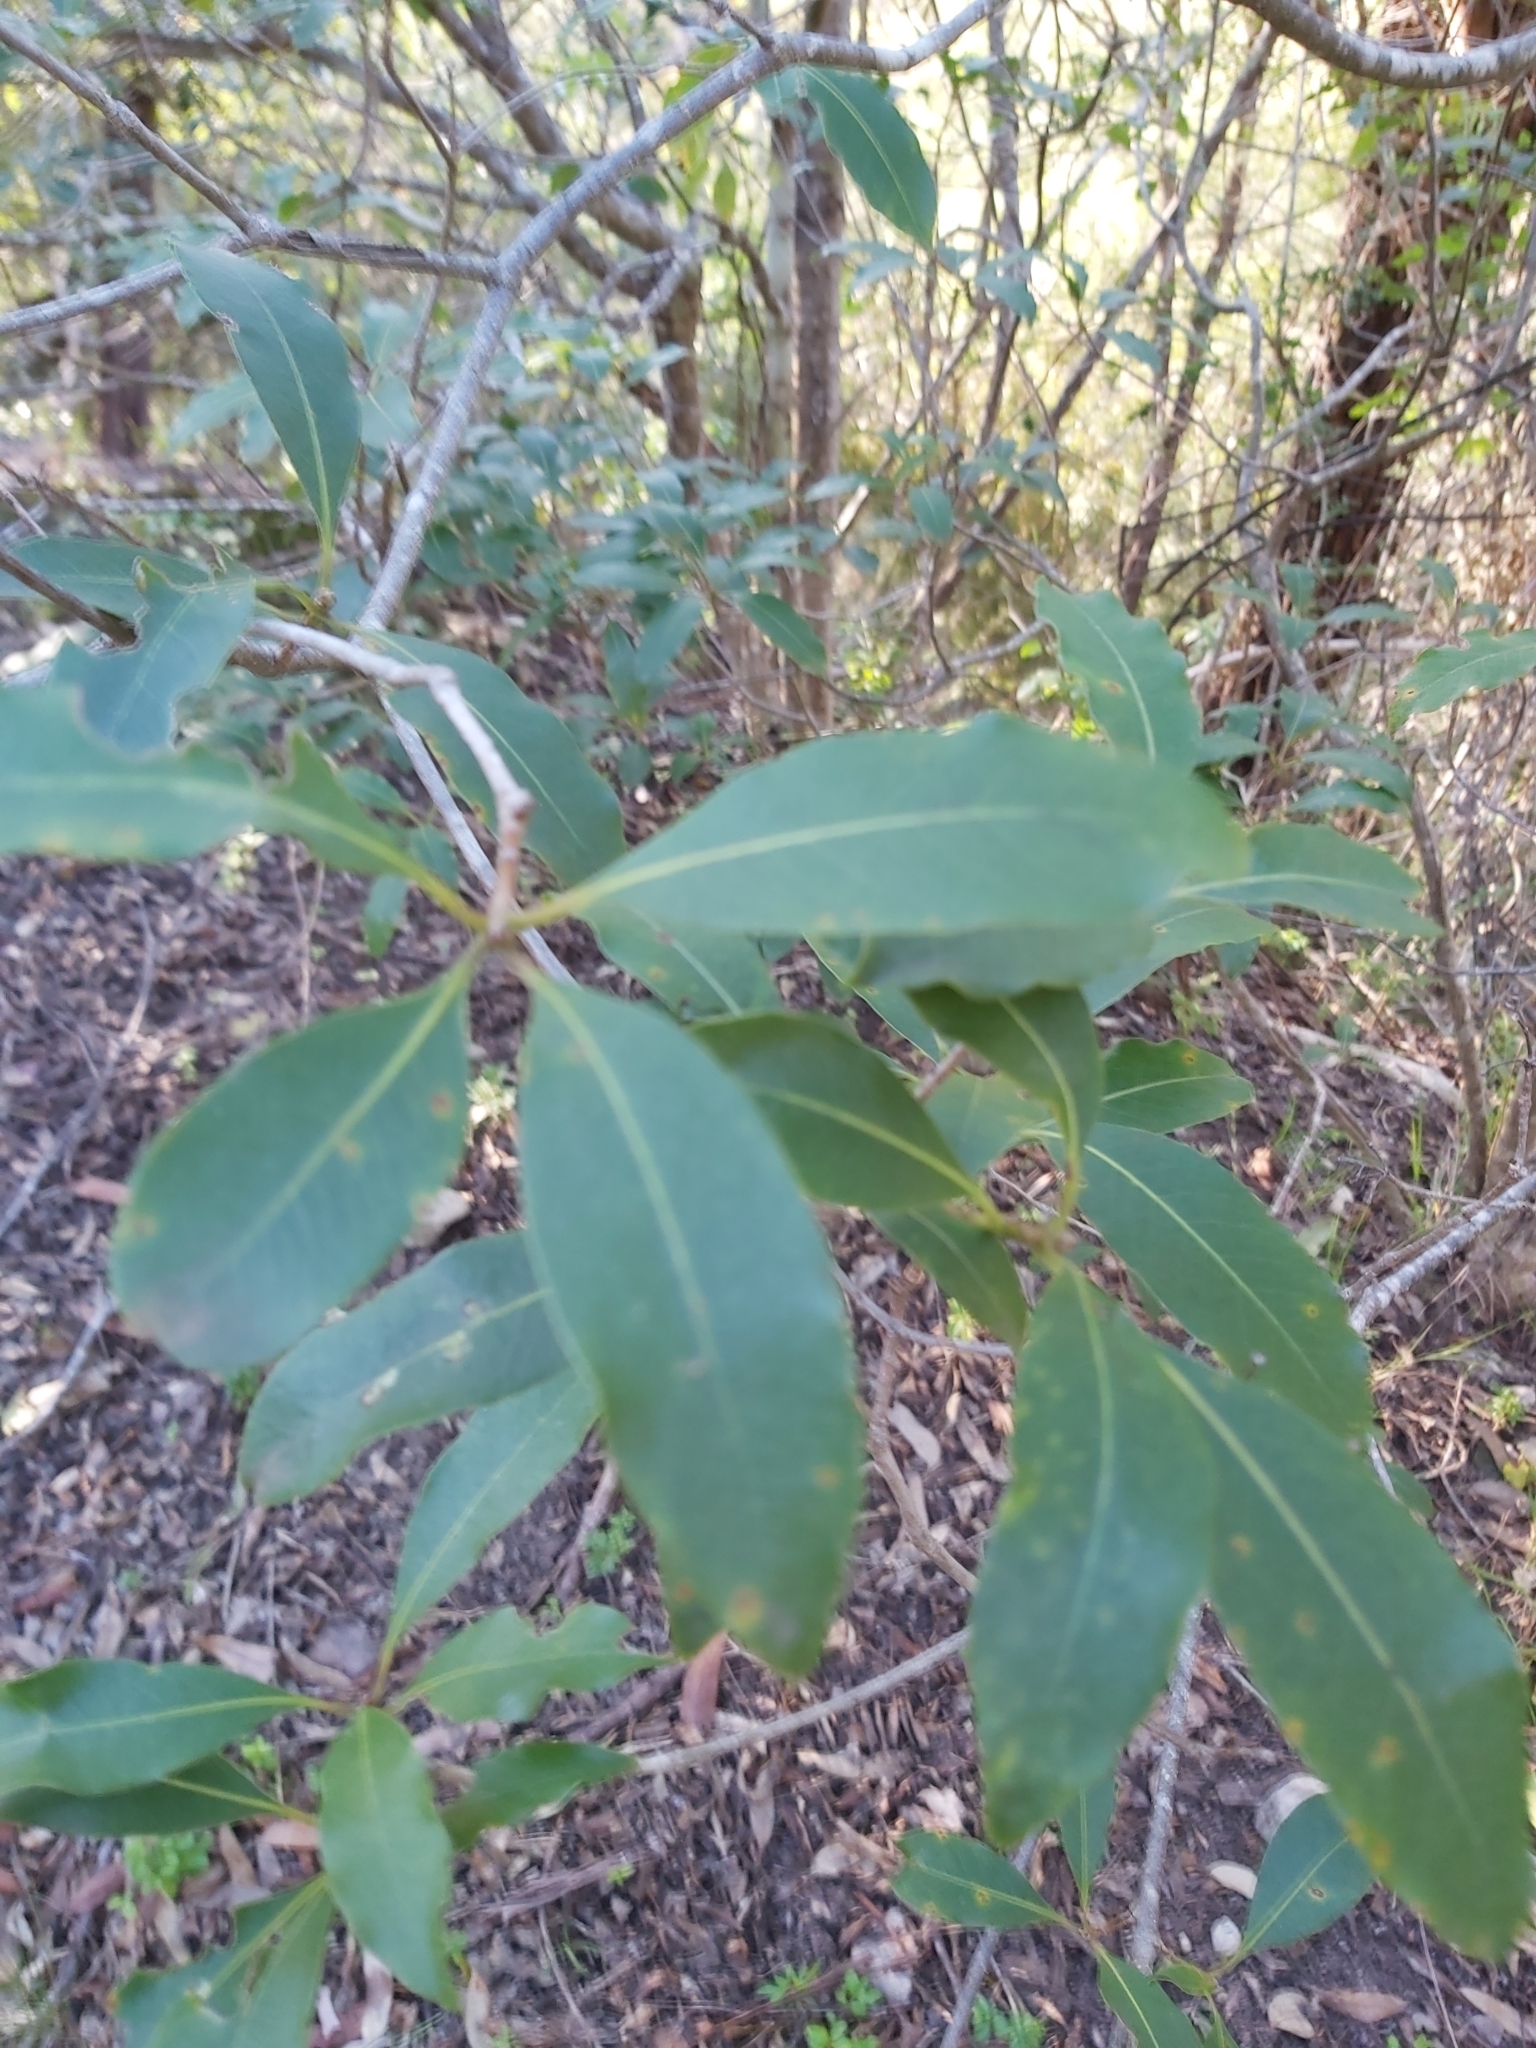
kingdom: Plantae
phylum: Tracheophyta
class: Magnoliopsida
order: Apiales
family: Pittosporaceae
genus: Pittosporum
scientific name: Pittosporum undulatum
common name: Australian cheesewood
